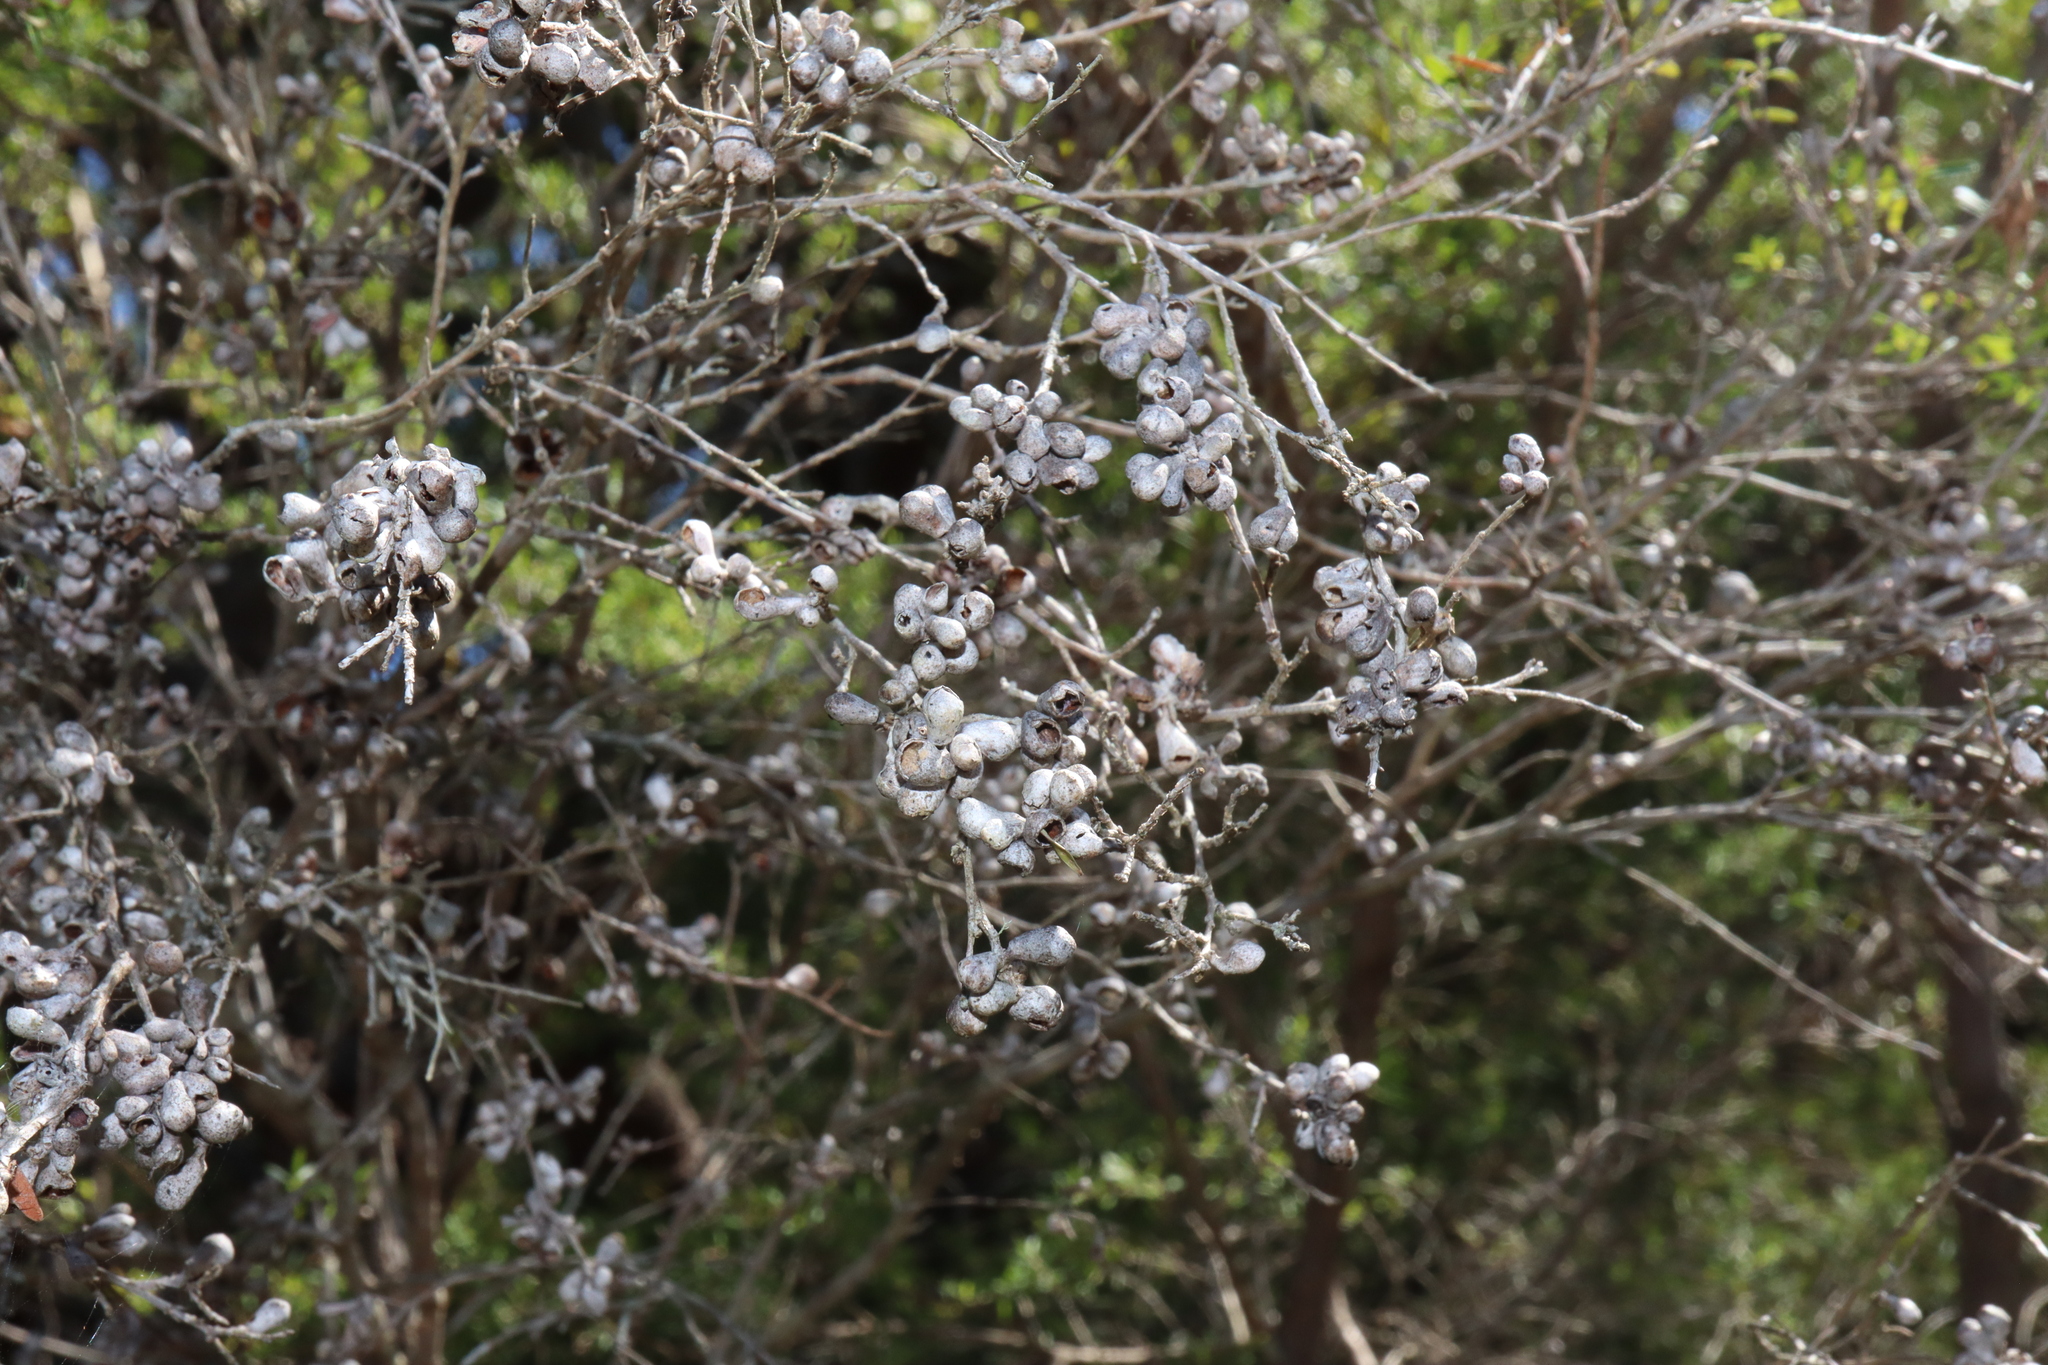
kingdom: Animalia
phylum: Arthropoda
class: Insecta
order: Hemiptera
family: Asterolecaniidae
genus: Eremococcus
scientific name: Eremococcus
